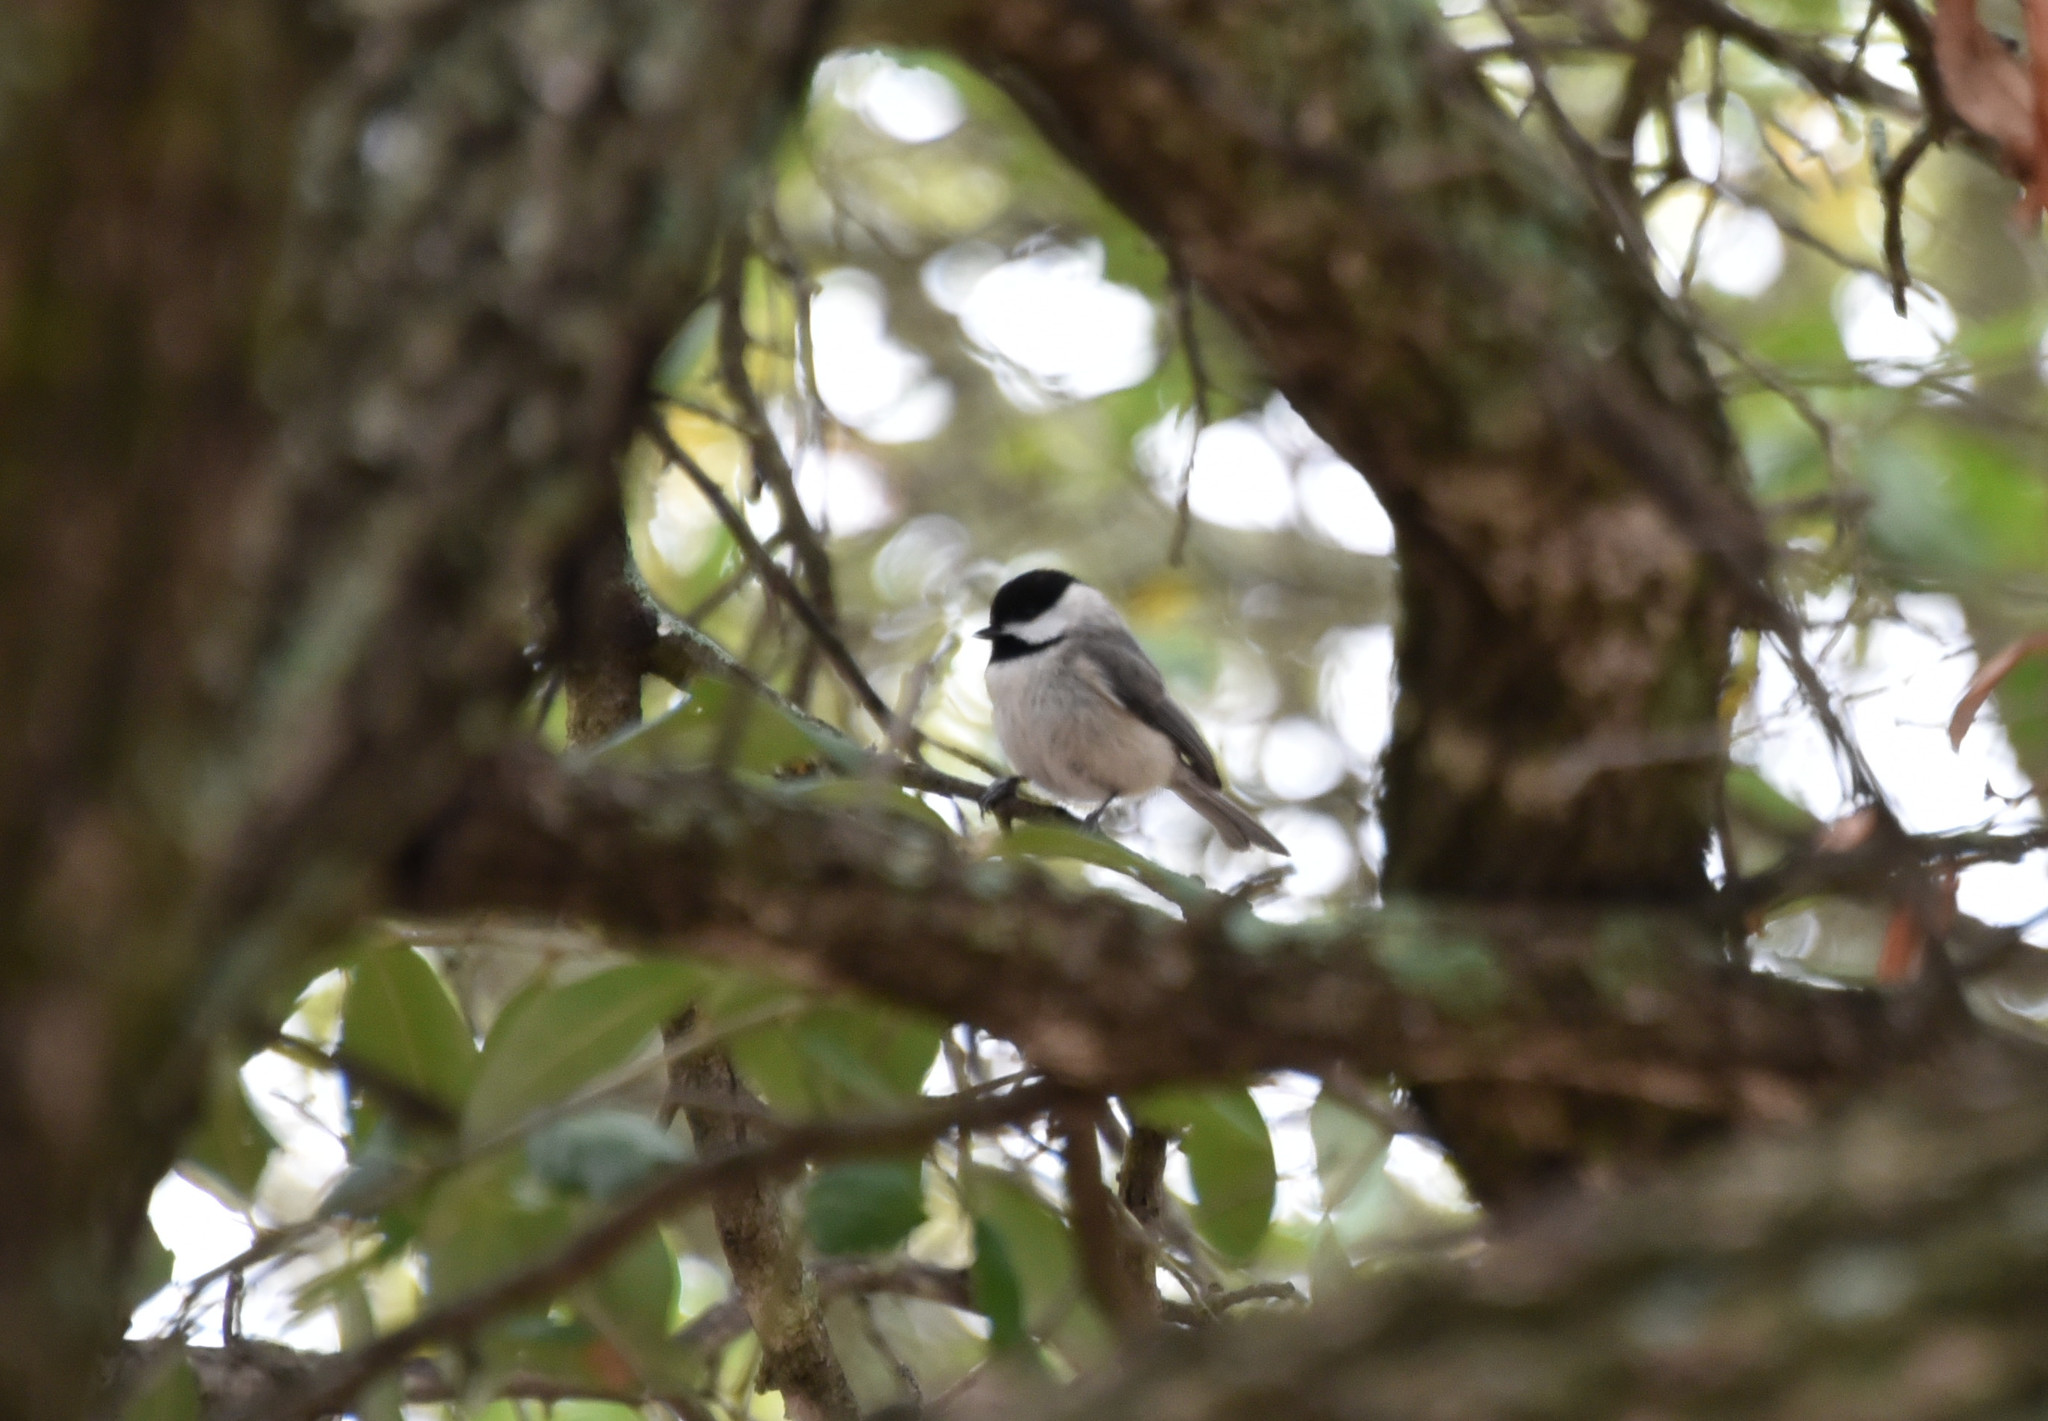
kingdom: Animalia
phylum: Chordata
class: Aves
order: Passeriformes
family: Paridae
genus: Poecile
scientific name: Poecile carolinensis
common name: Carolina chickadee
